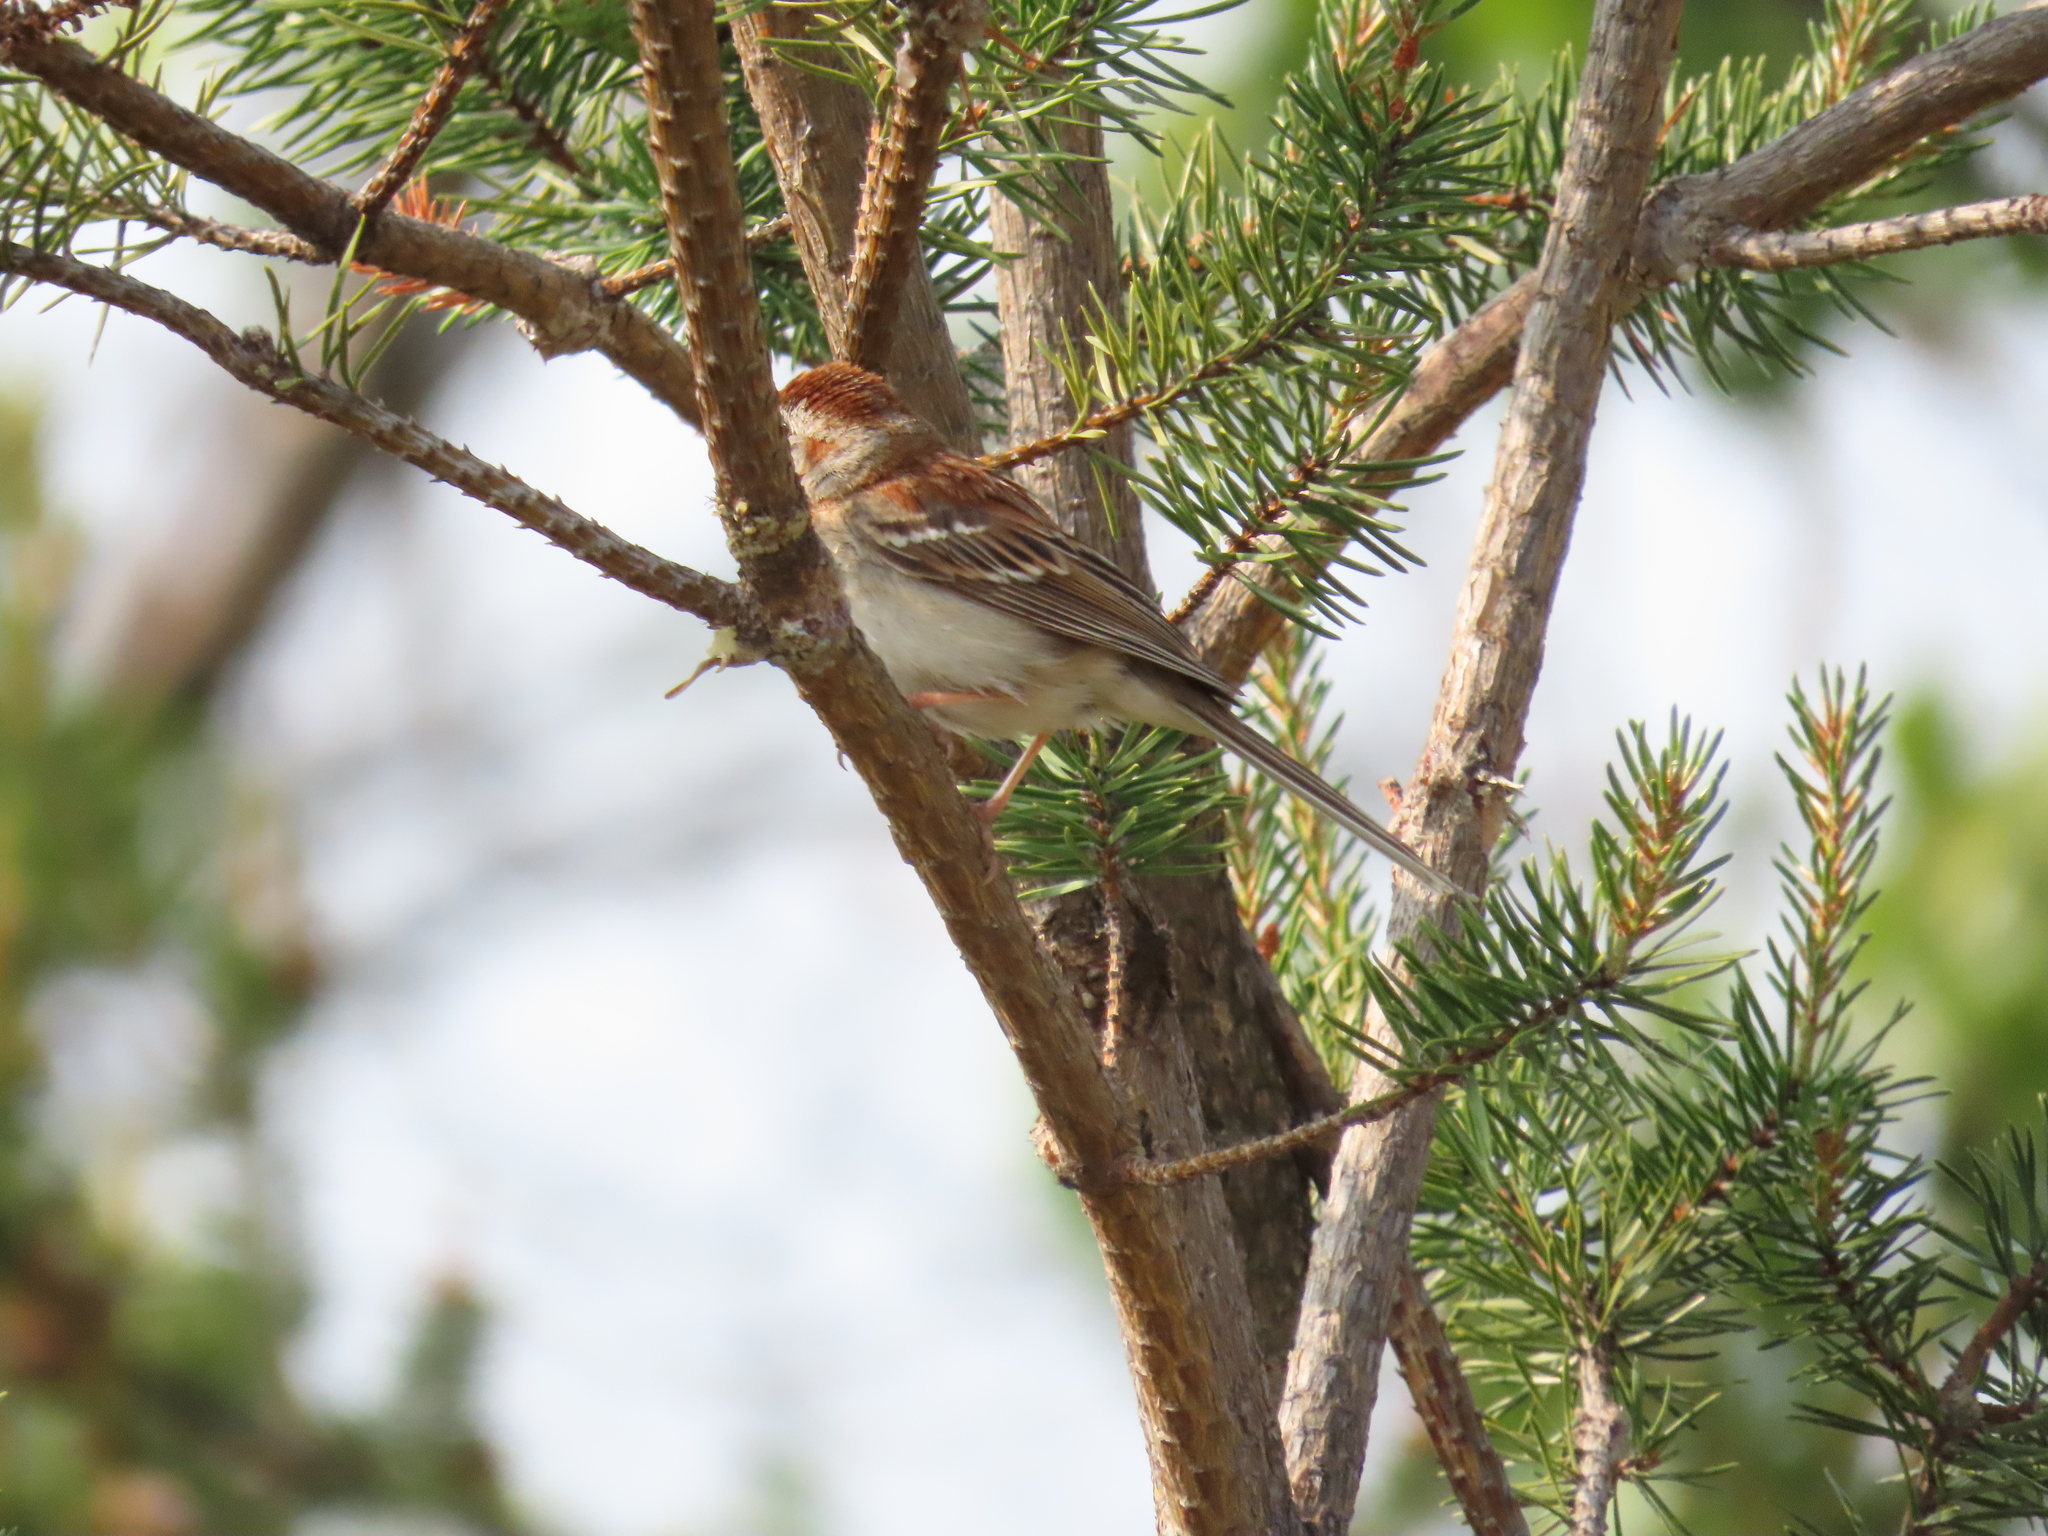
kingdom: Animalia
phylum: Chordata
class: Aves
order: Passeriformes
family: Passerellidae
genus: Spizella
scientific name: Spizella pusilla
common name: Field sparrow
